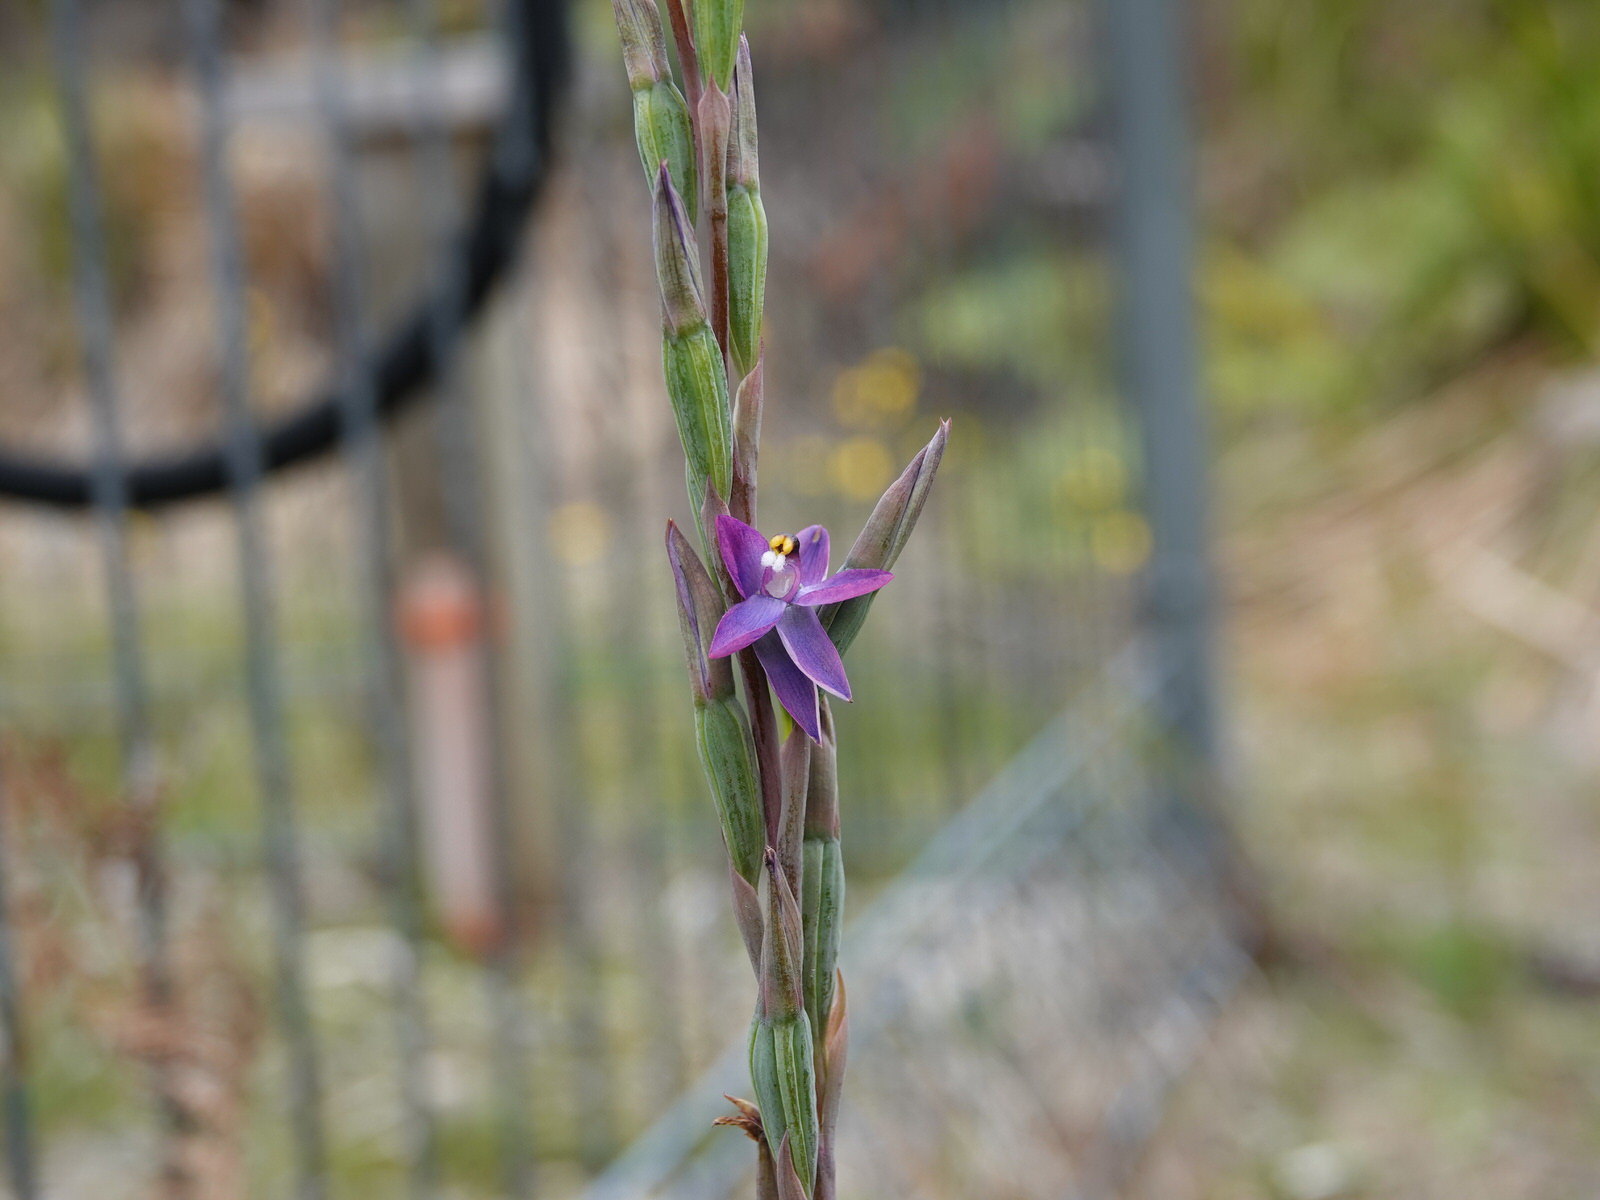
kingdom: Plantae
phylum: Tracheophyta
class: Liliopsida
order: Asparagales
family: Orchidaceae
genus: Thelymitra
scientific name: Thelymitra pauciflora
